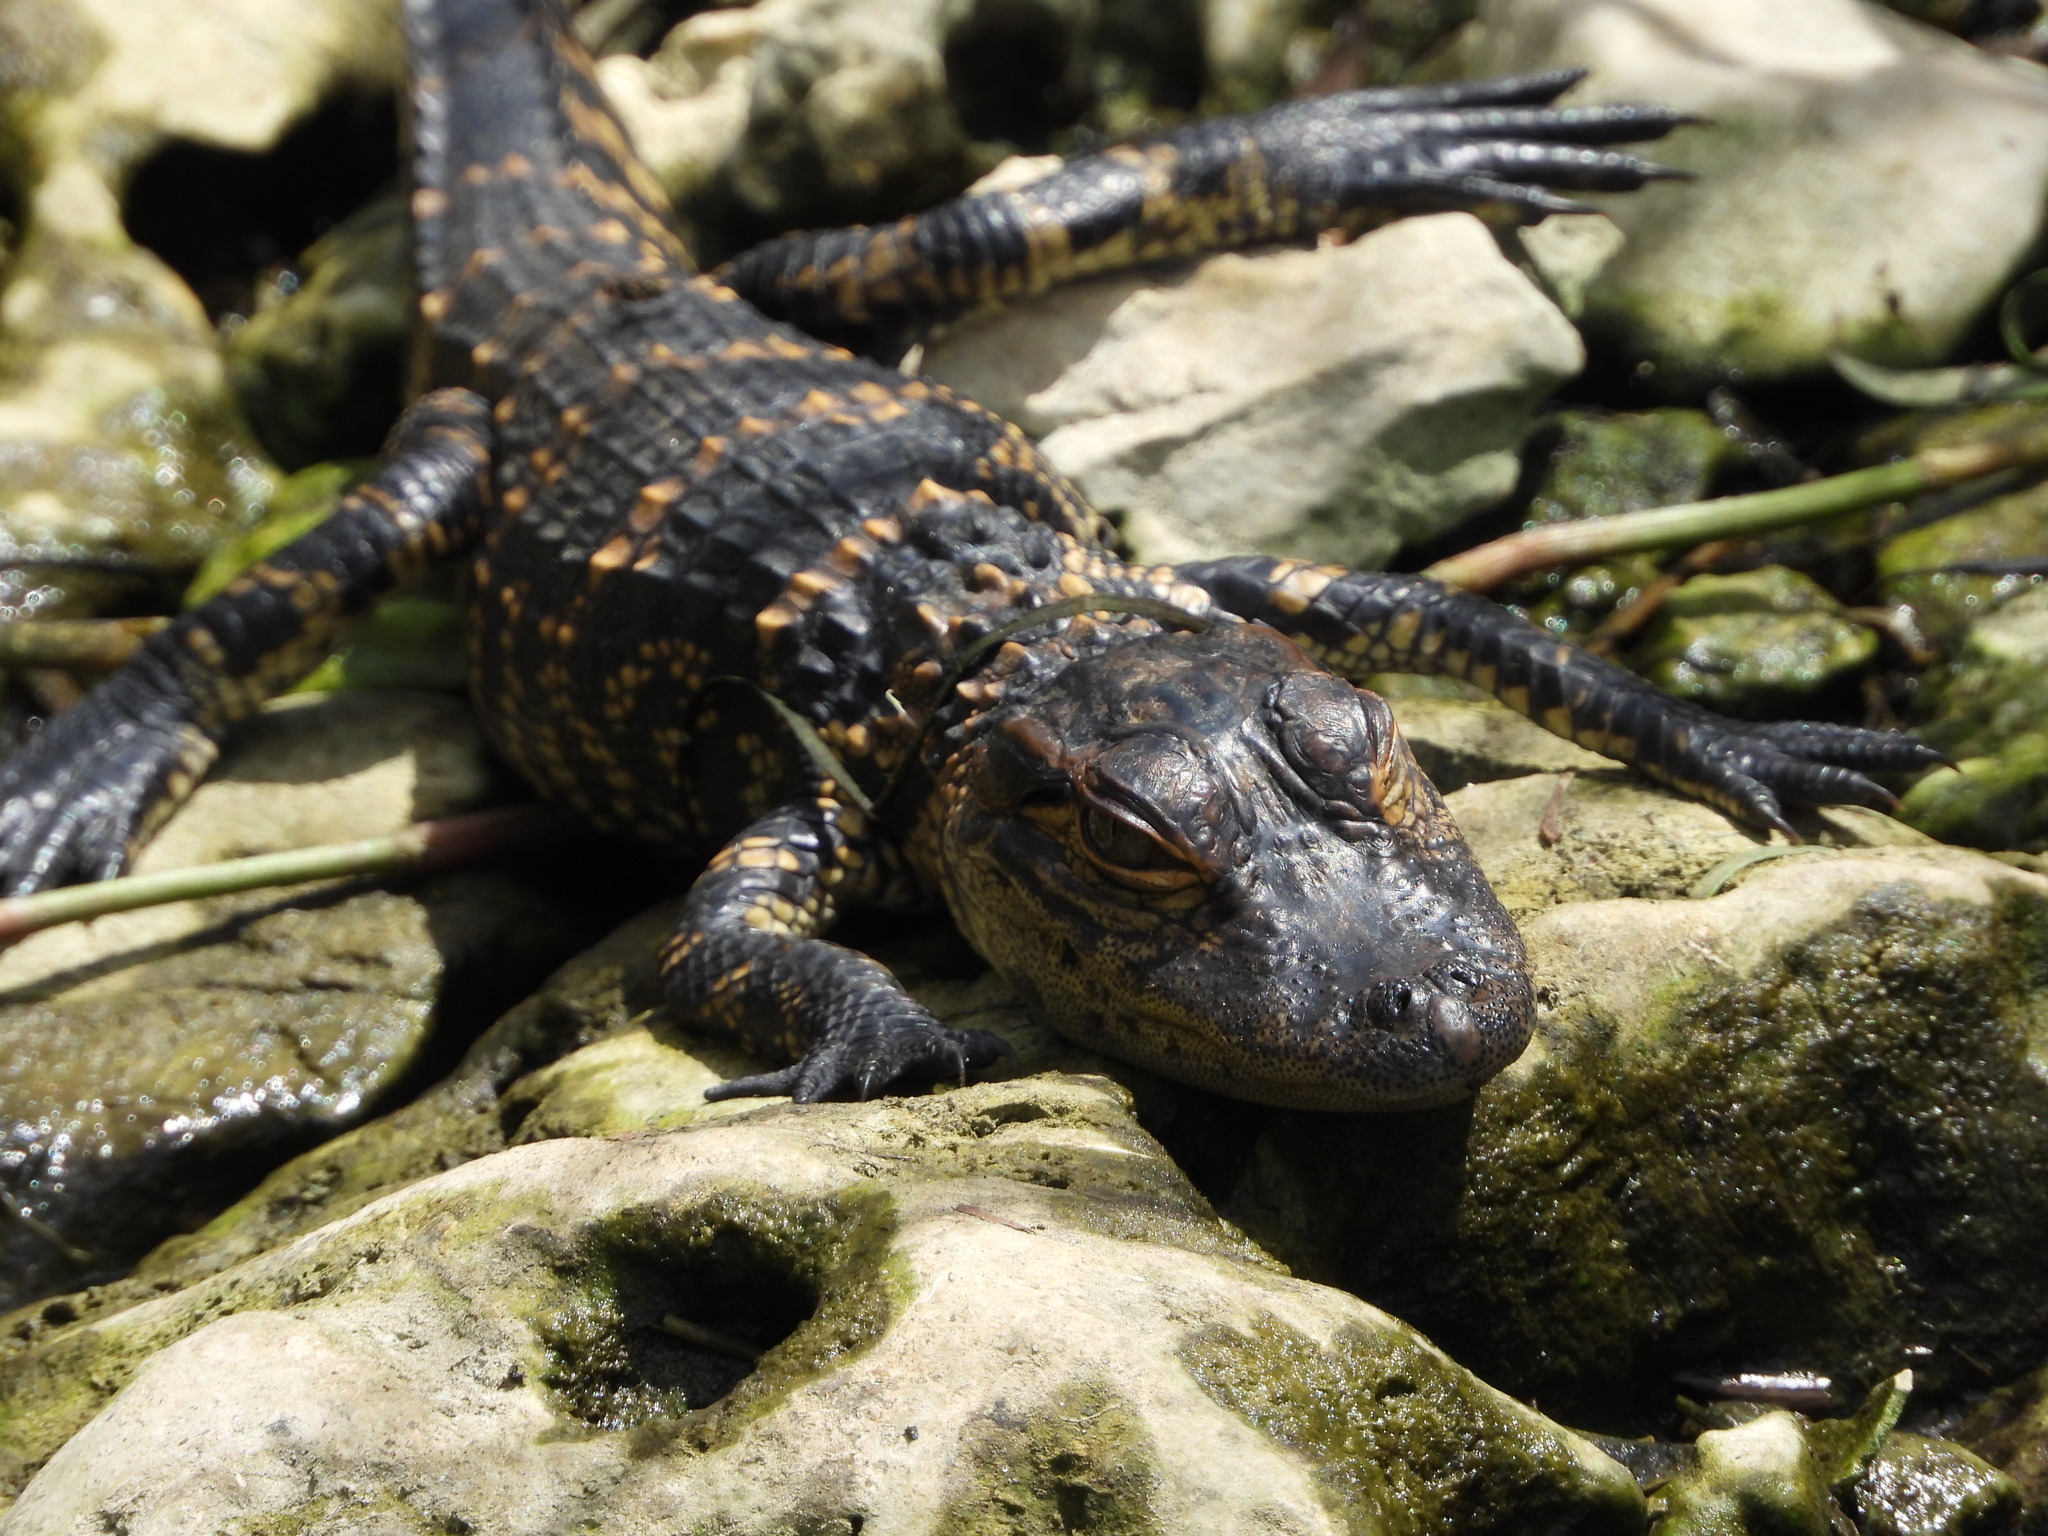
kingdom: Animalia
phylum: Chordata
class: Crocodylia
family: Alligatoridae
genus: Alligator
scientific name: Alligator mississippiensis
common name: American alligator
